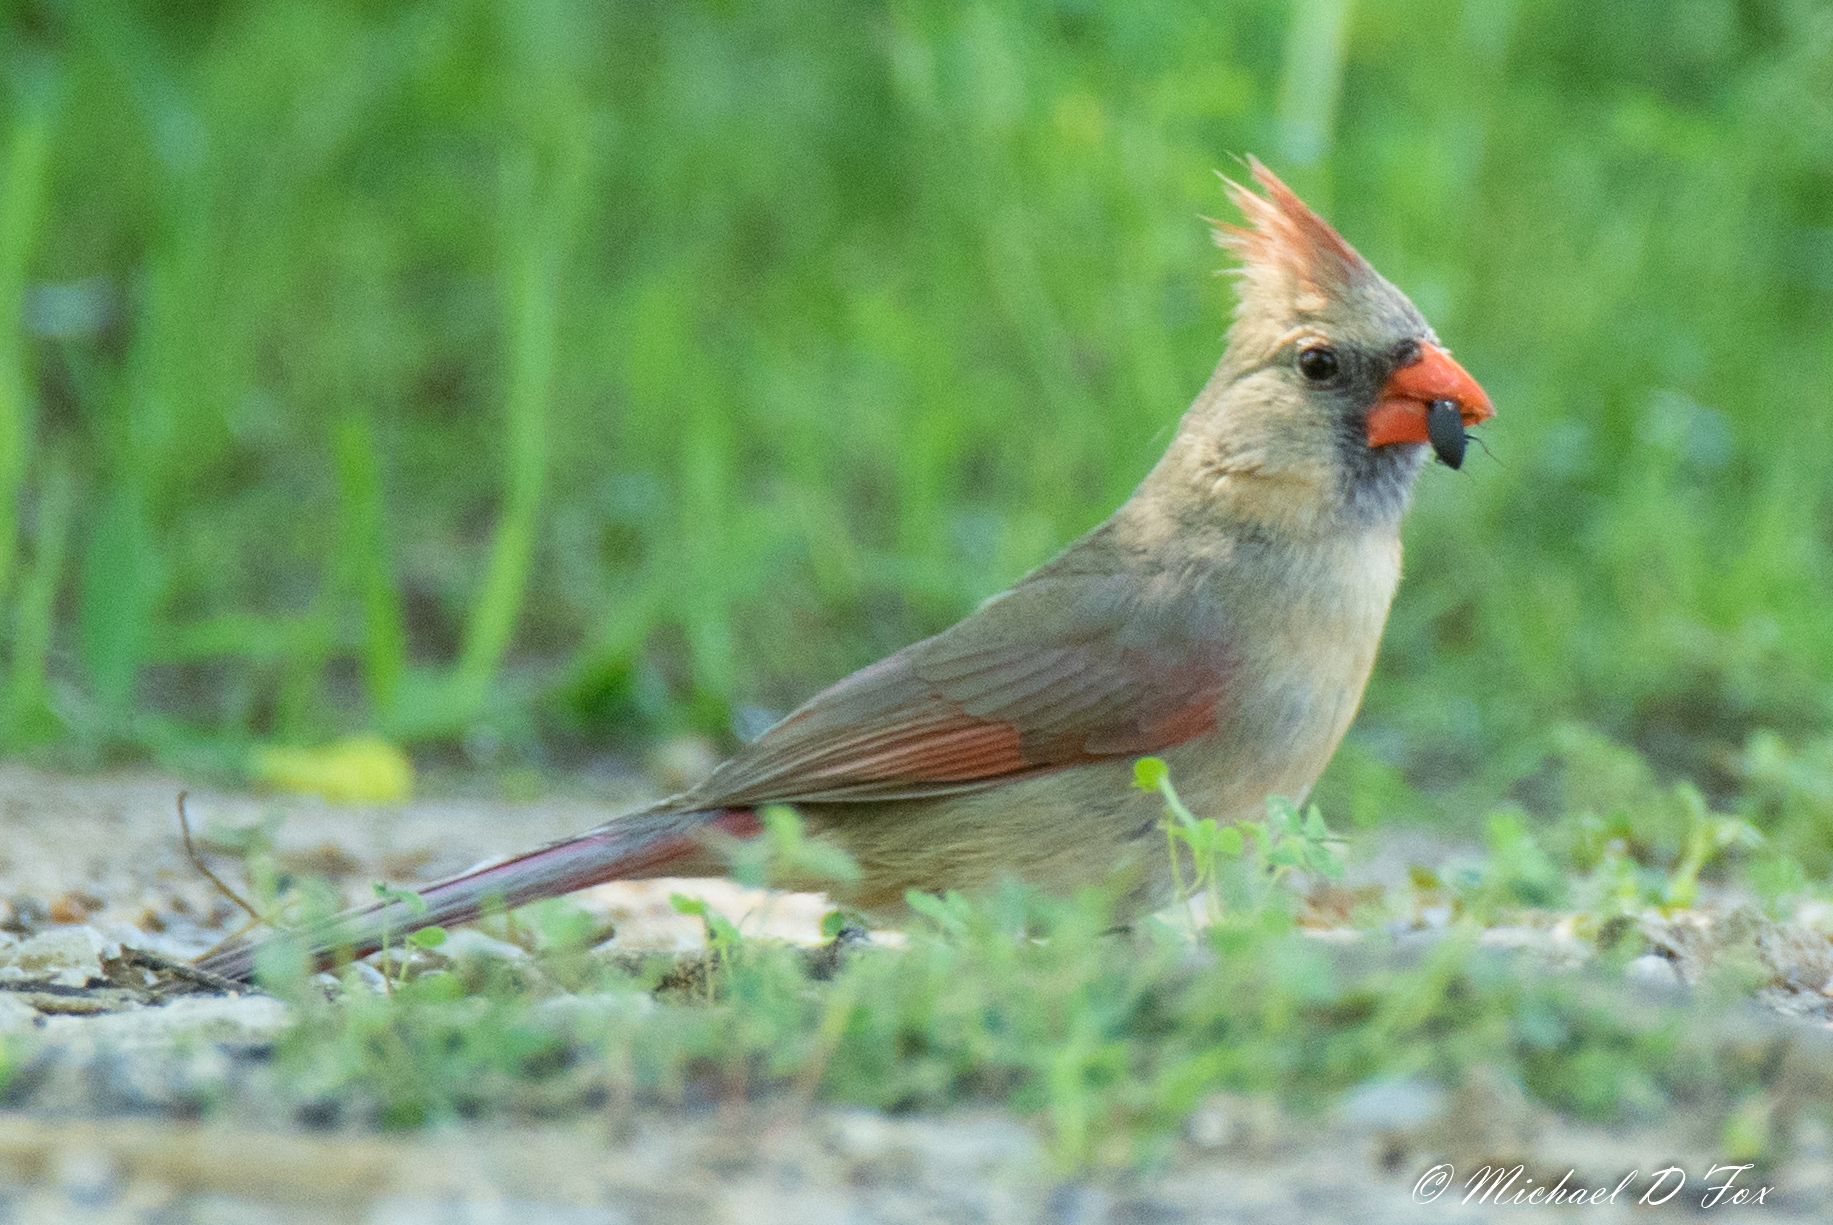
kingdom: Animalia
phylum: Chordata
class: Aves
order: Passeriformes
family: Cardinalidae
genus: Cardinalis
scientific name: Cardinalis cardinalis
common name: Northern cardinal
